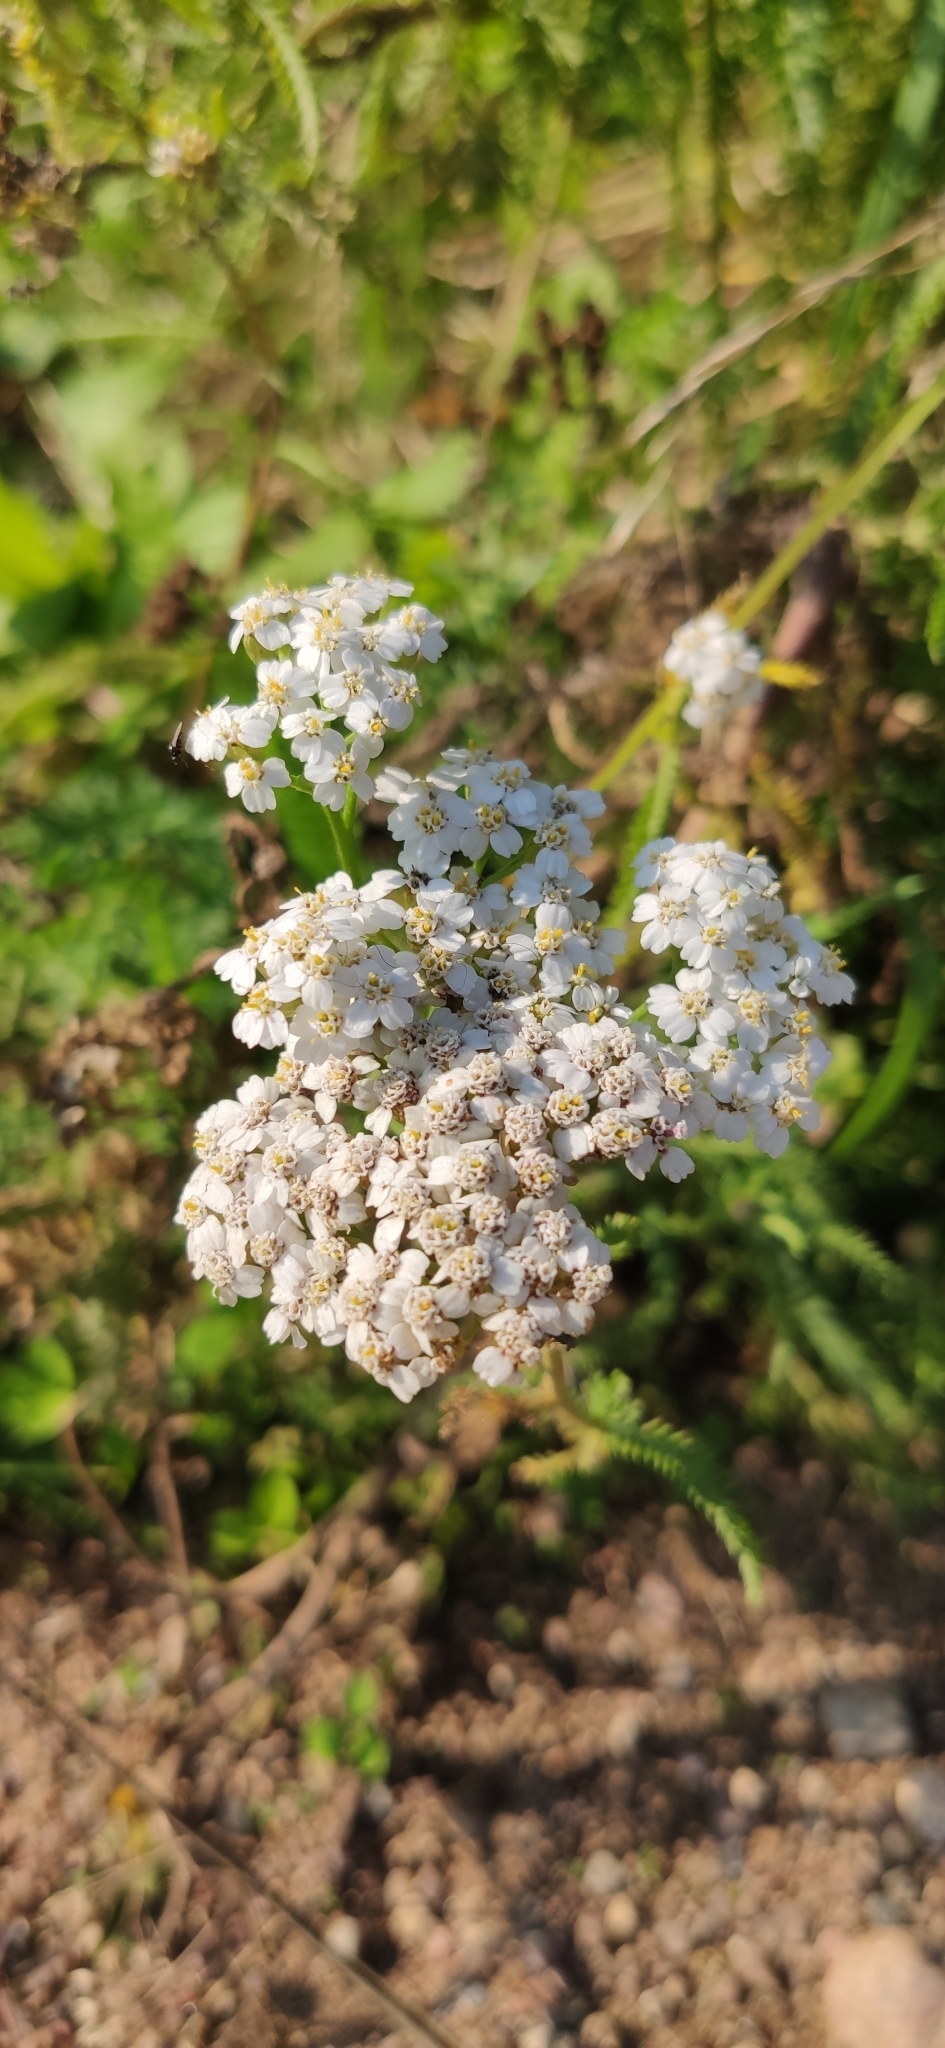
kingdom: Plantae
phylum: Tracheophyta
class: Magnoliopsida
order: Asterales
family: Asteraceae
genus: Achillea
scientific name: Achillea millefolium
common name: Yarrow
